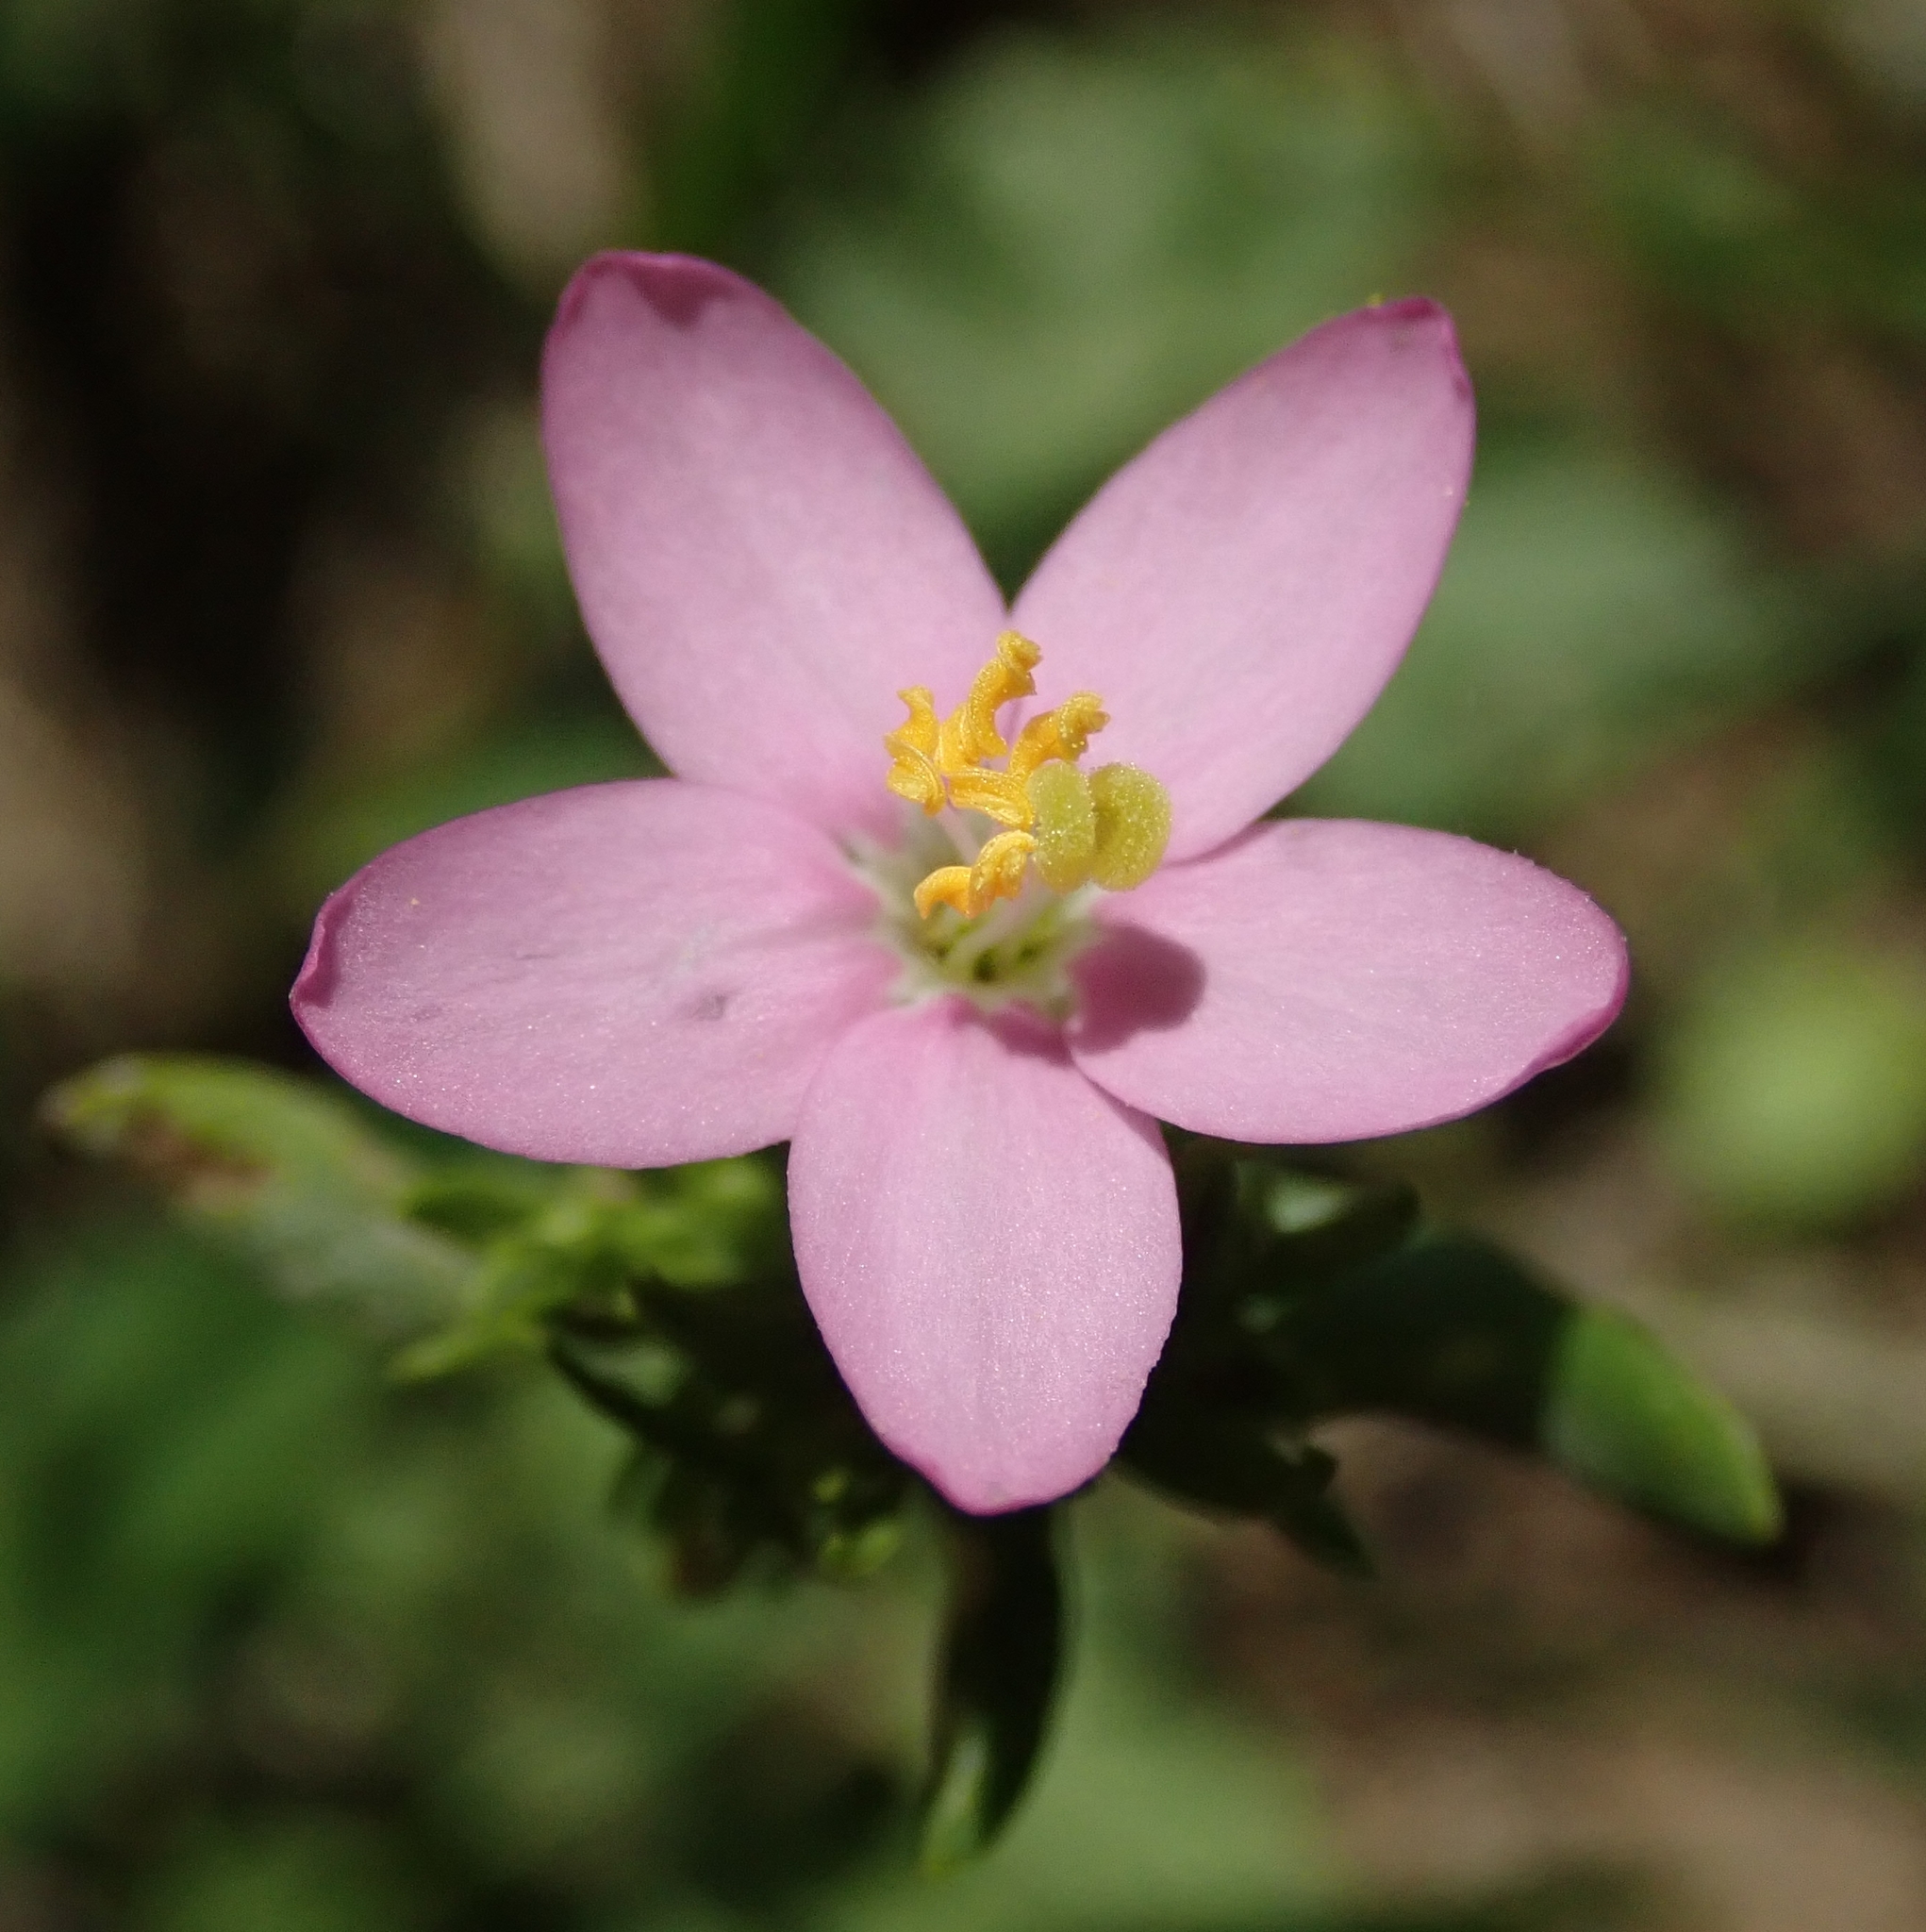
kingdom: Plantae
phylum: Tracheophyta
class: Magnoliopsida
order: Gentianales
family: Gentianaceae
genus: Centaurium
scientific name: Centaurium erythraea
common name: Common centaury
